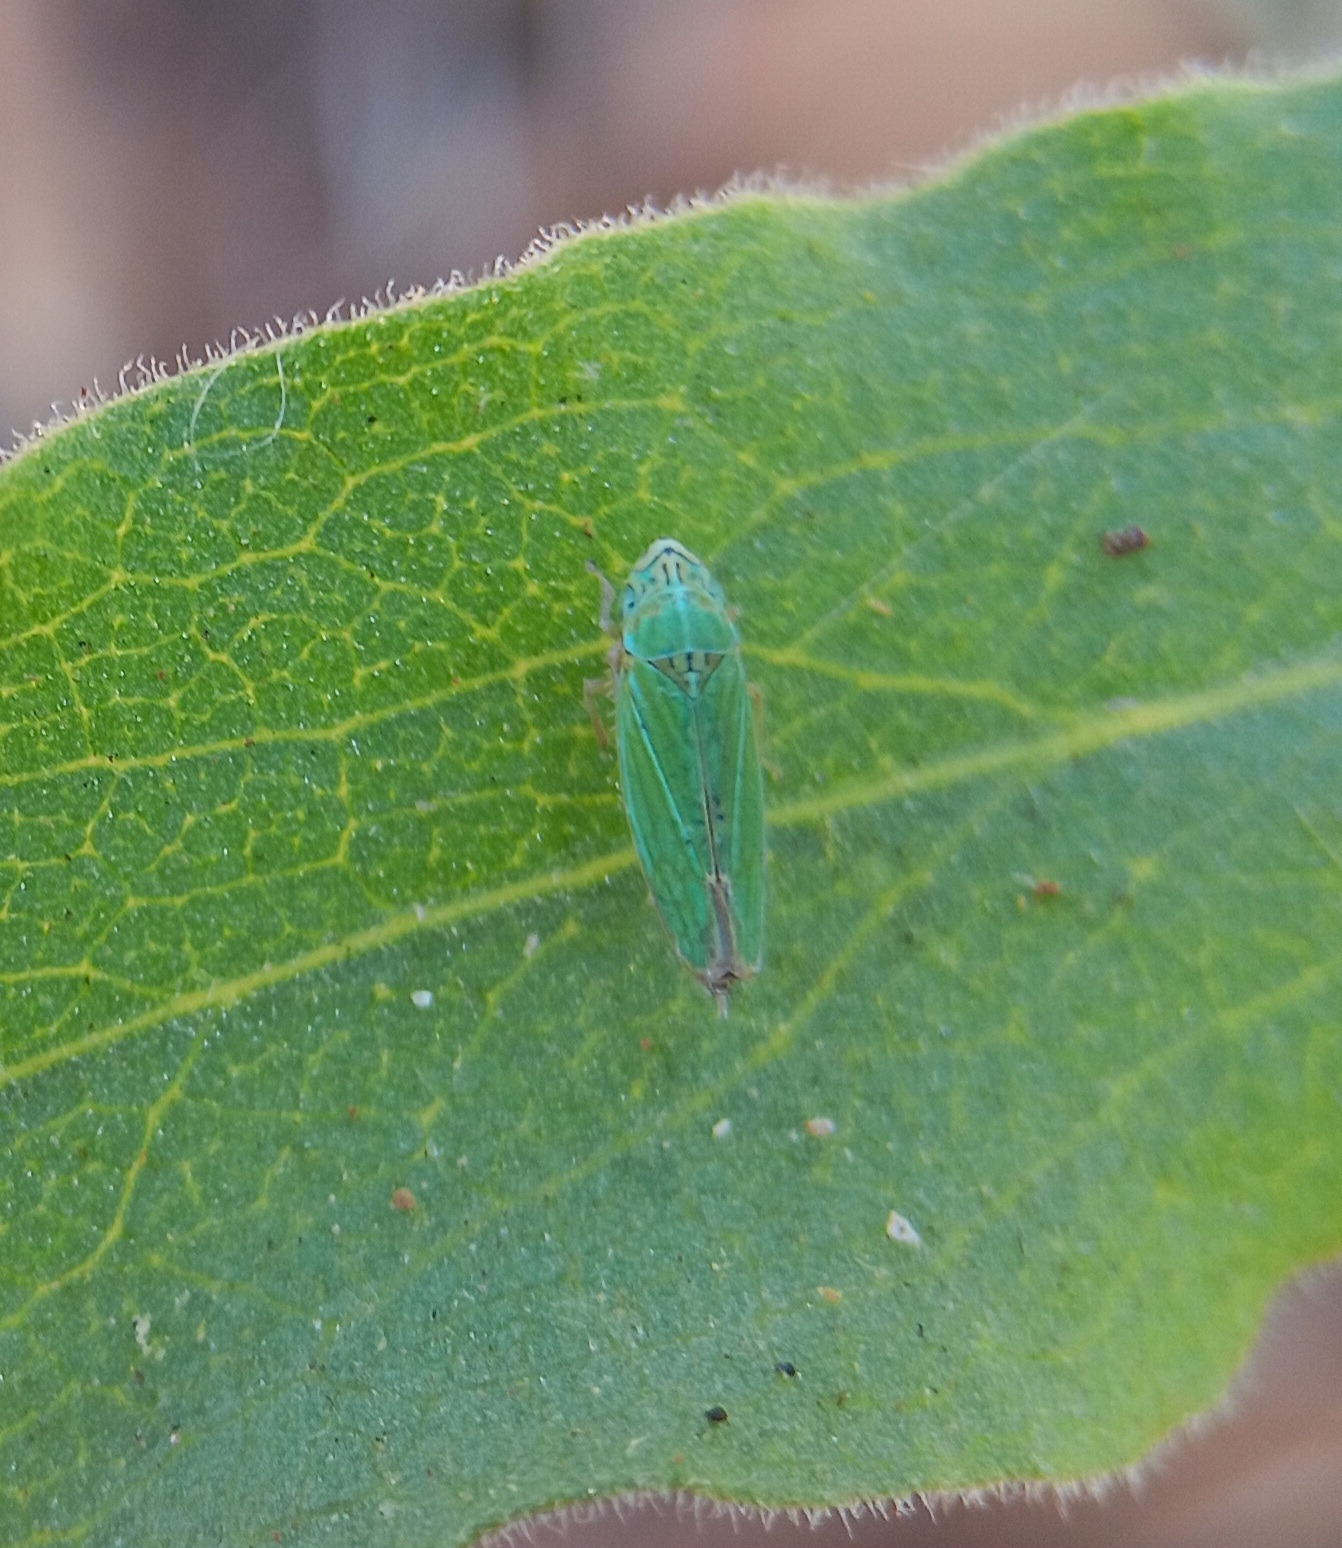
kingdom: Animalia
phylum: Arthropoda
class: Insecta
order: Hemiptera
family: Cicadellidae
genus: Graphocephala
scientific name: Graphocephala cythura
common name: Leafhopper
